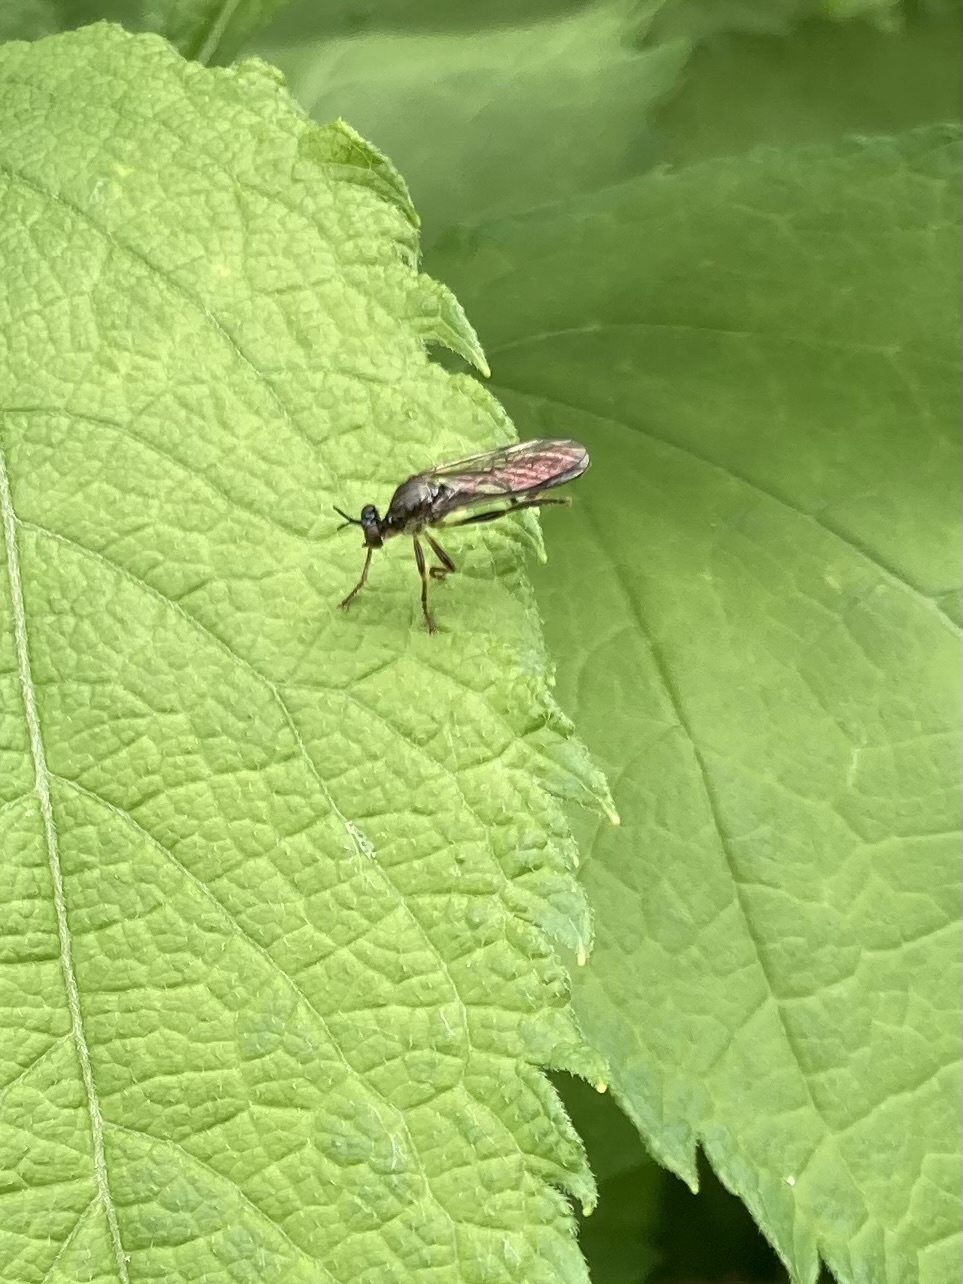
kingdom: Animalia
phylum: Arthropoda
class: Insecta
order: Diptera
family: Asilidae
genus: Dioctria
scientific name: Dioctria hyalipennis
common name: Stripe-legged robberfly
